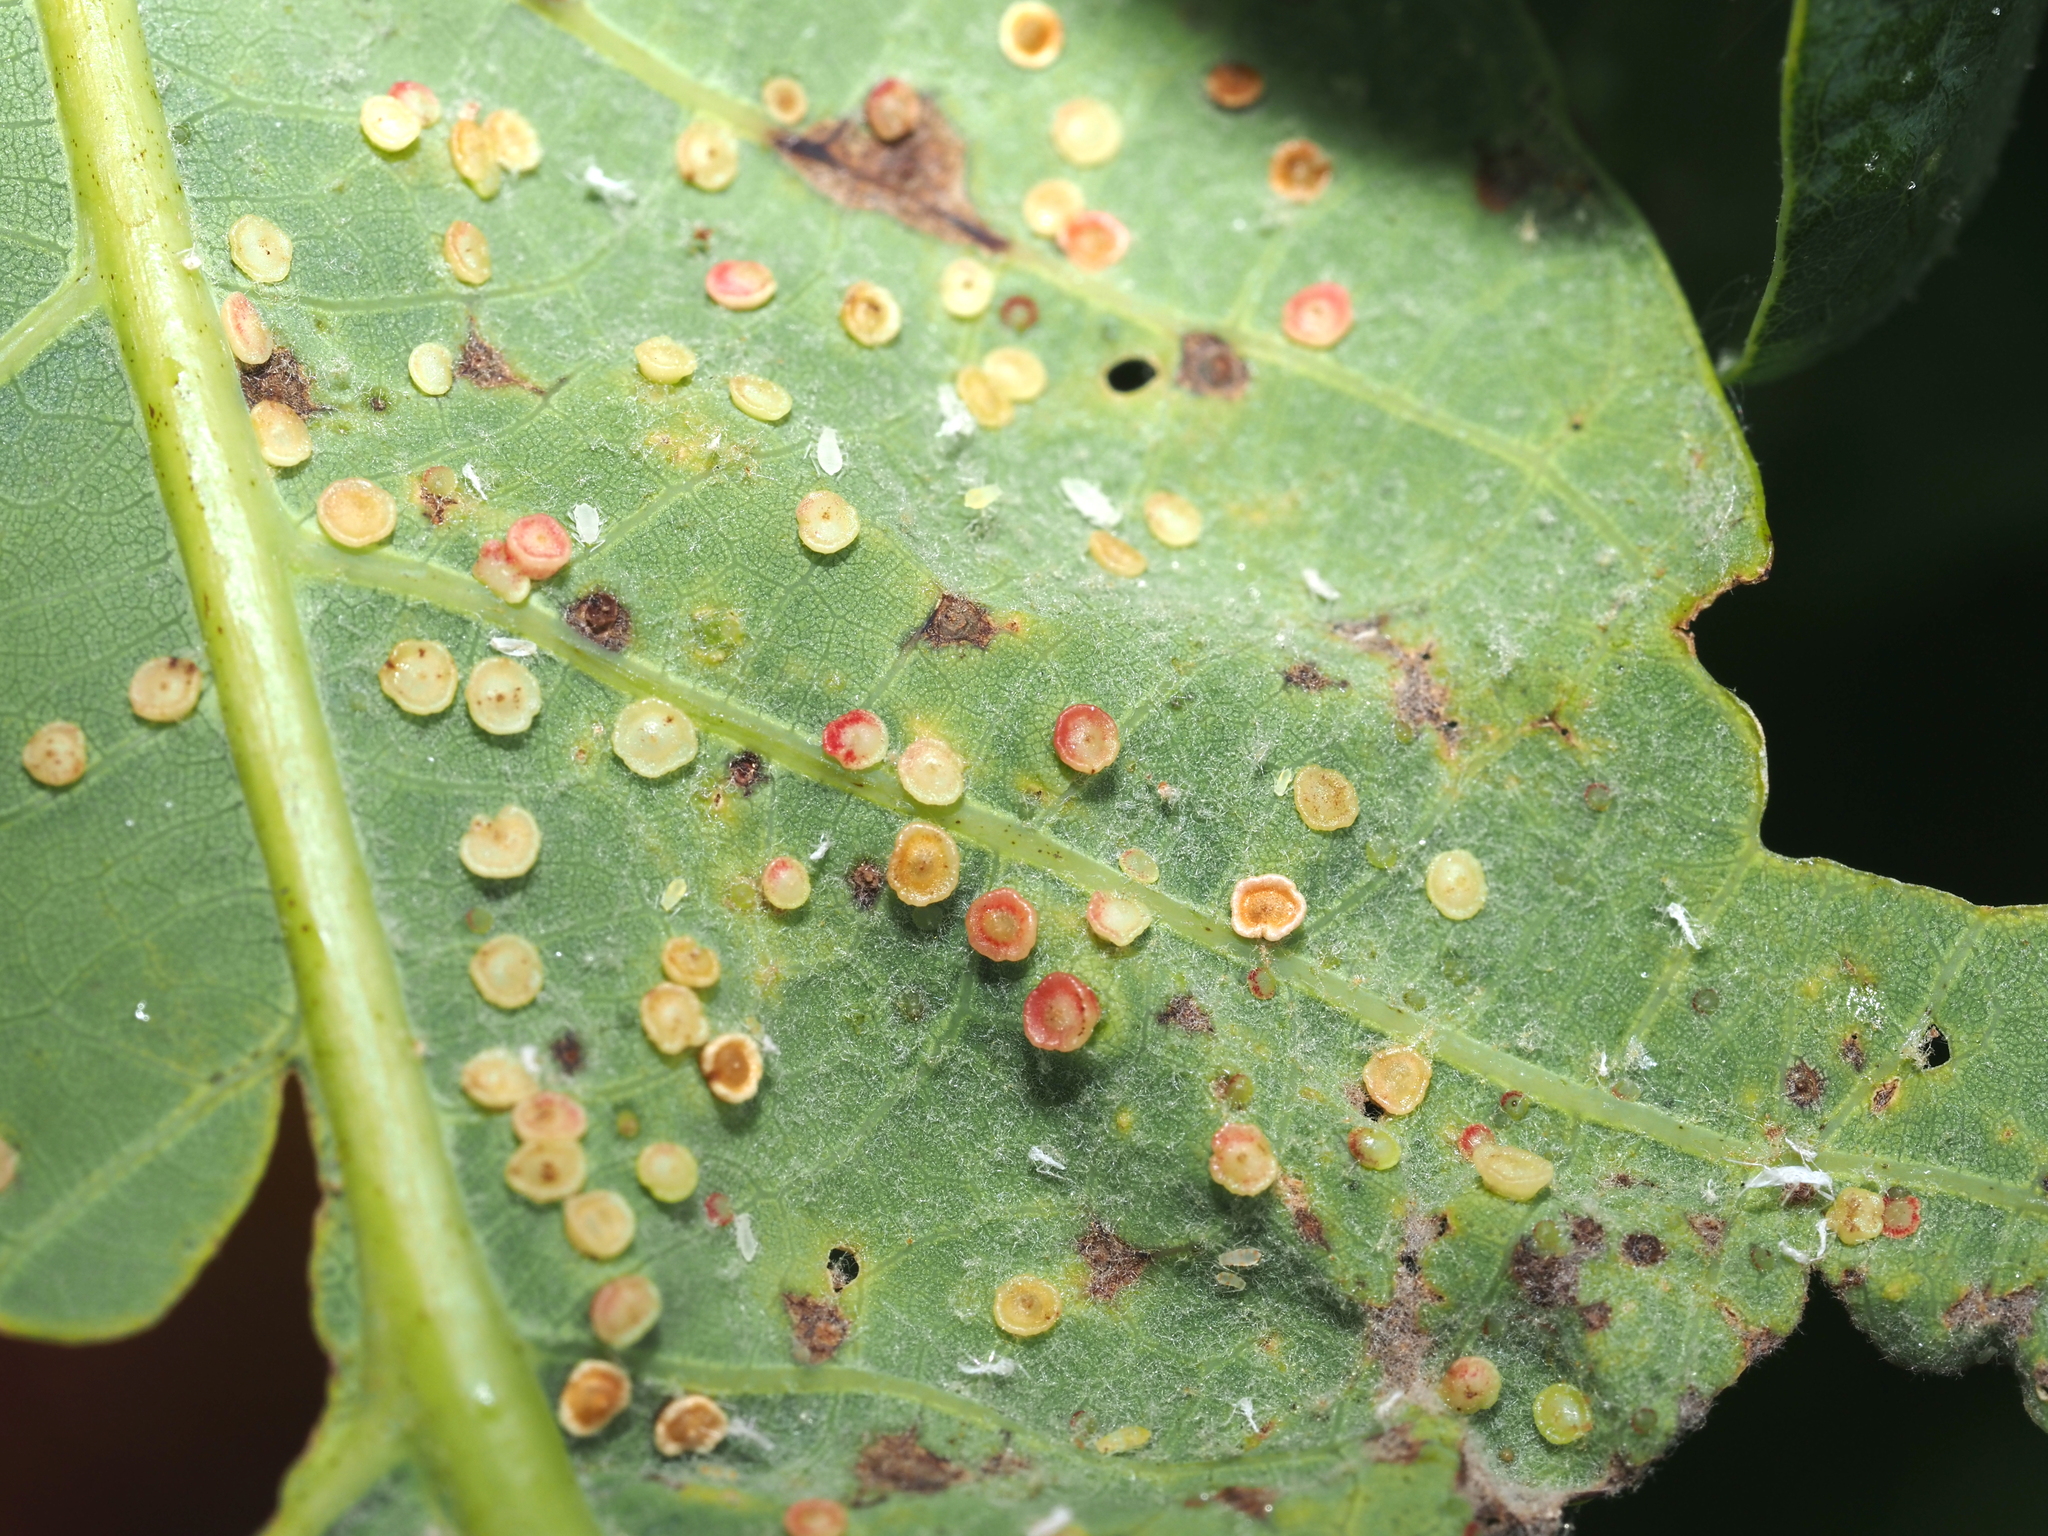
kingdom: Animalia
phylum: Arthropoda
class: Insecta
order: Hymenoptera
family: Cynipidae
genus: Neuroterus
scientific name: Neuroterus
